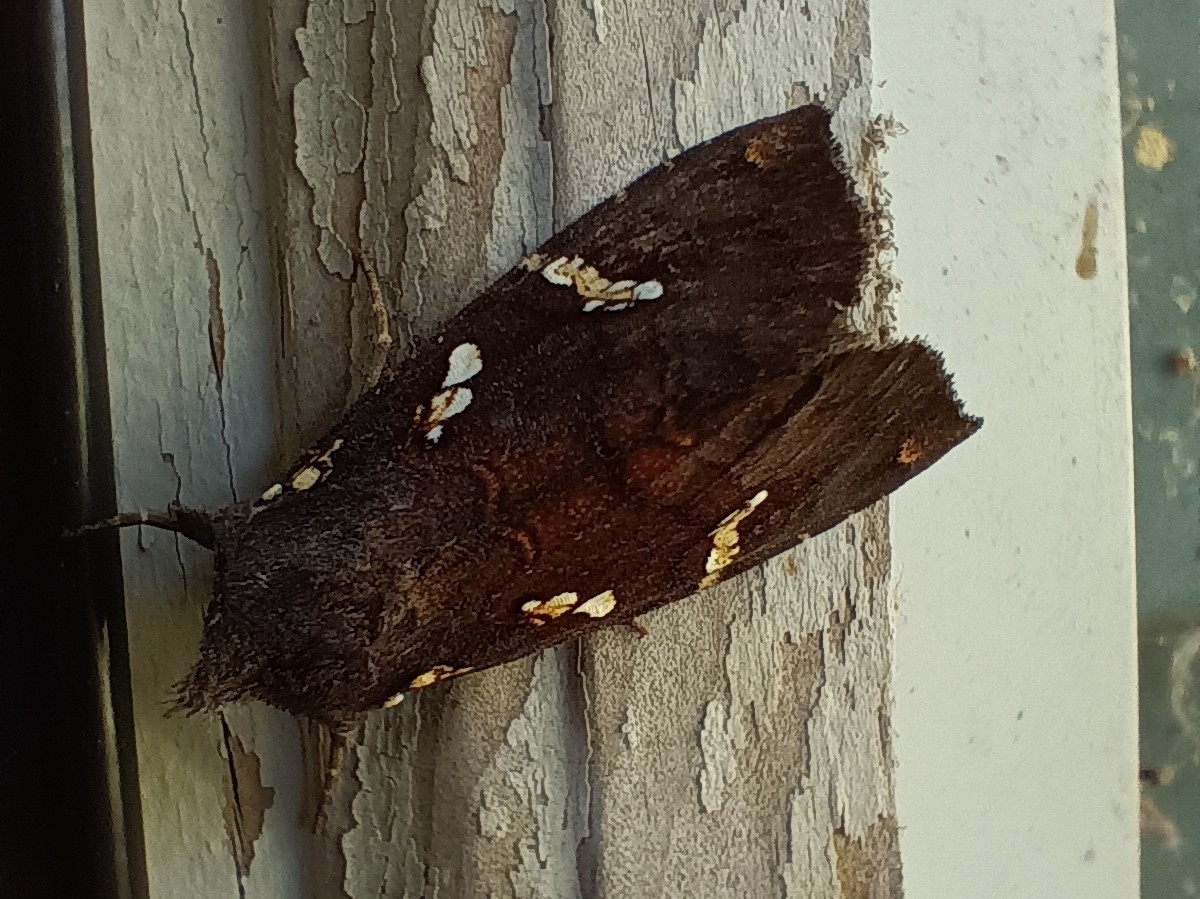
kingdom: Animalia
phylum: Arthropoda
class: Insecta
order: Lepidoptera
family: Noctuidae
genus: Papaipema
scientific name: Papaipema cerussata
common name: Ironweed borer moth
